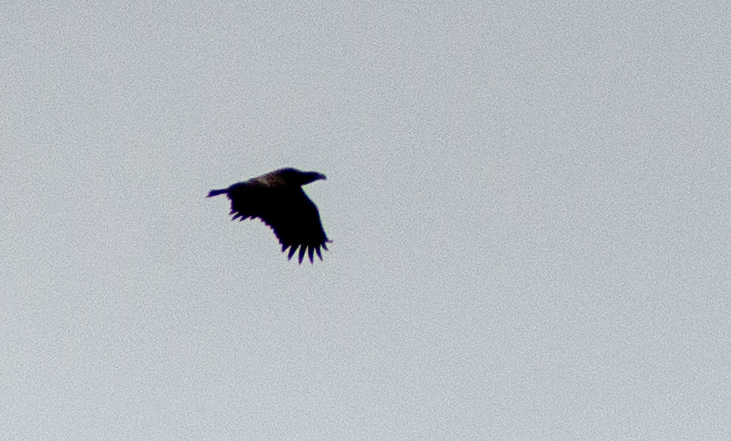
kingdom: Animalia
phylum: Chordata
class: Aves
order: Accipitriformes
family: Accipitridae
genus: Haliaeetus
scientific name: Haliaeetus albicilla
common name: White-tailed eagle
